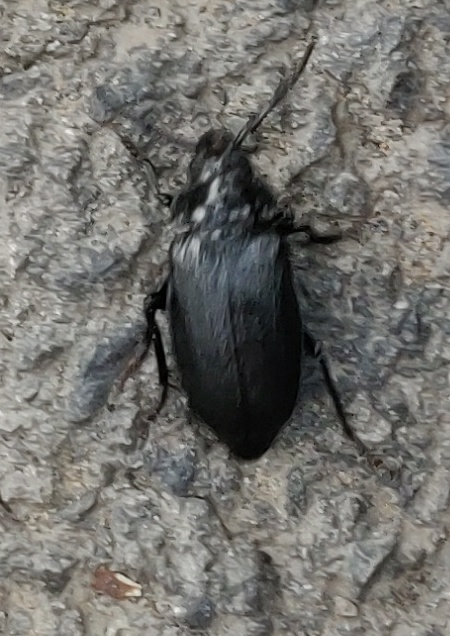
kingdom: Animalia
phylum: Arthropoda
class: Insecta
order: Coleoptera
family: Cerambycidae
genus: Prionus
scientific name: Prionus laticollis
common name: Broad necked prionus
